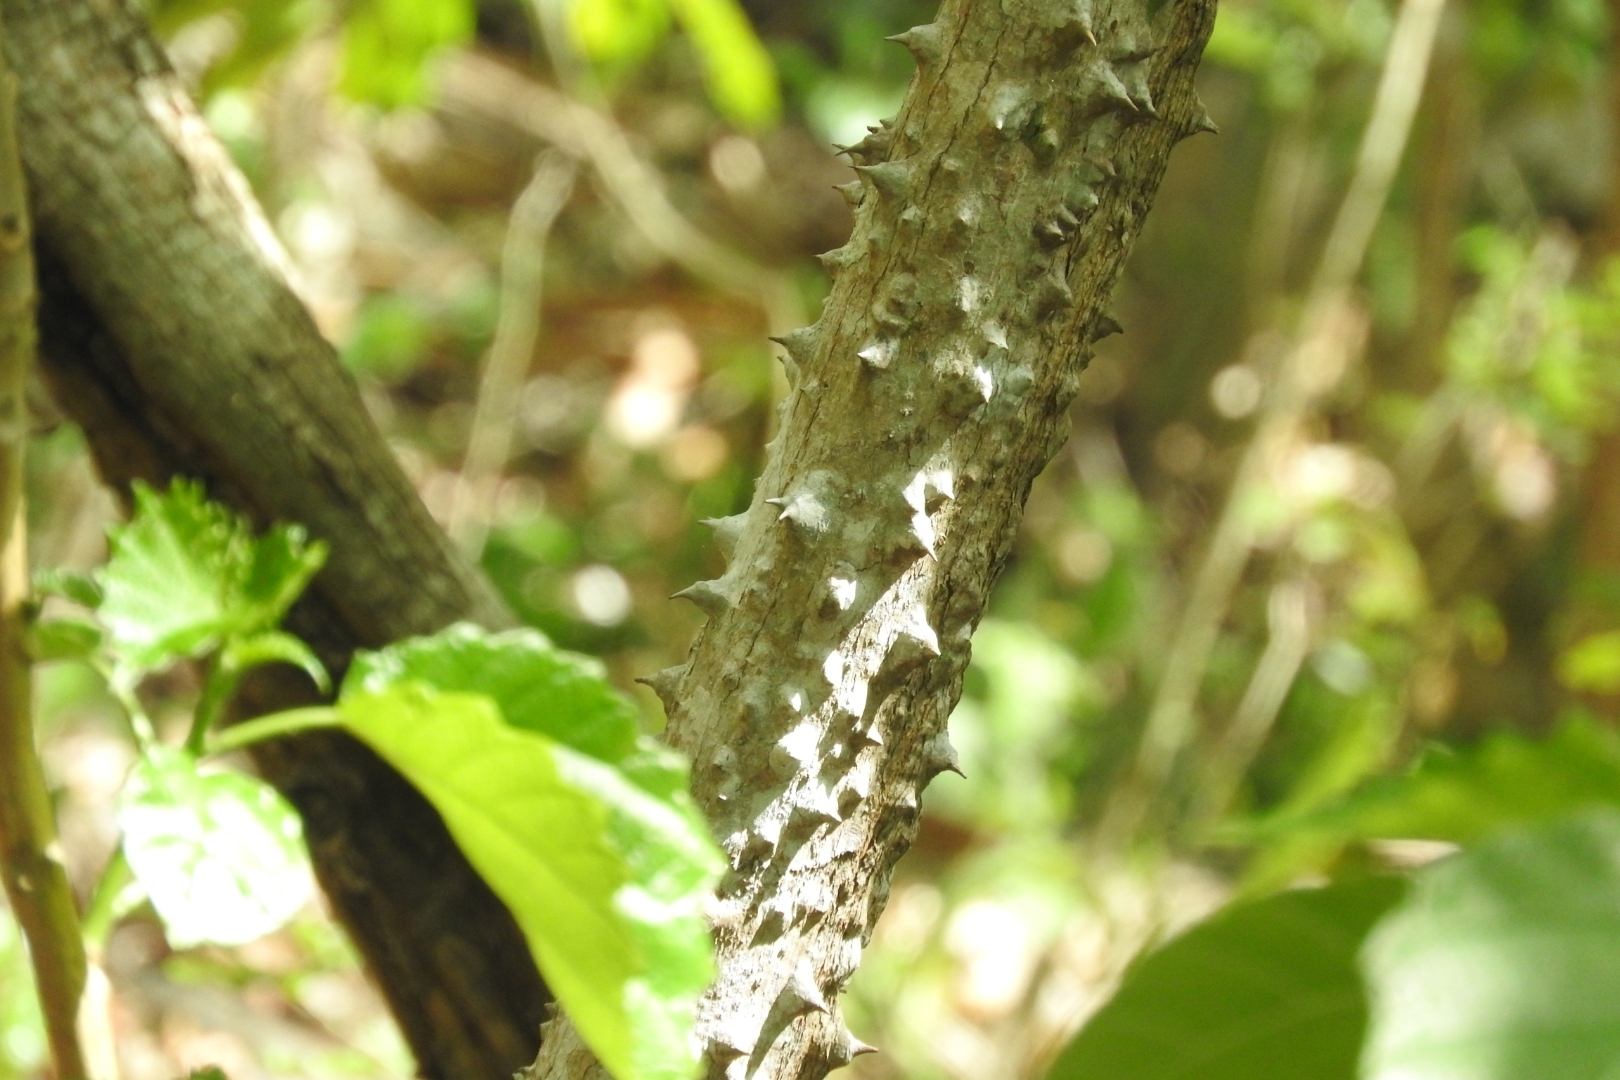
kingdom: Plantae
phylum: Tracheophyta
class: Magnoliopsida
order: Malvales
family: Malvaceae
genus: Ceiba
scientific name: Ceiba aesculifolia
